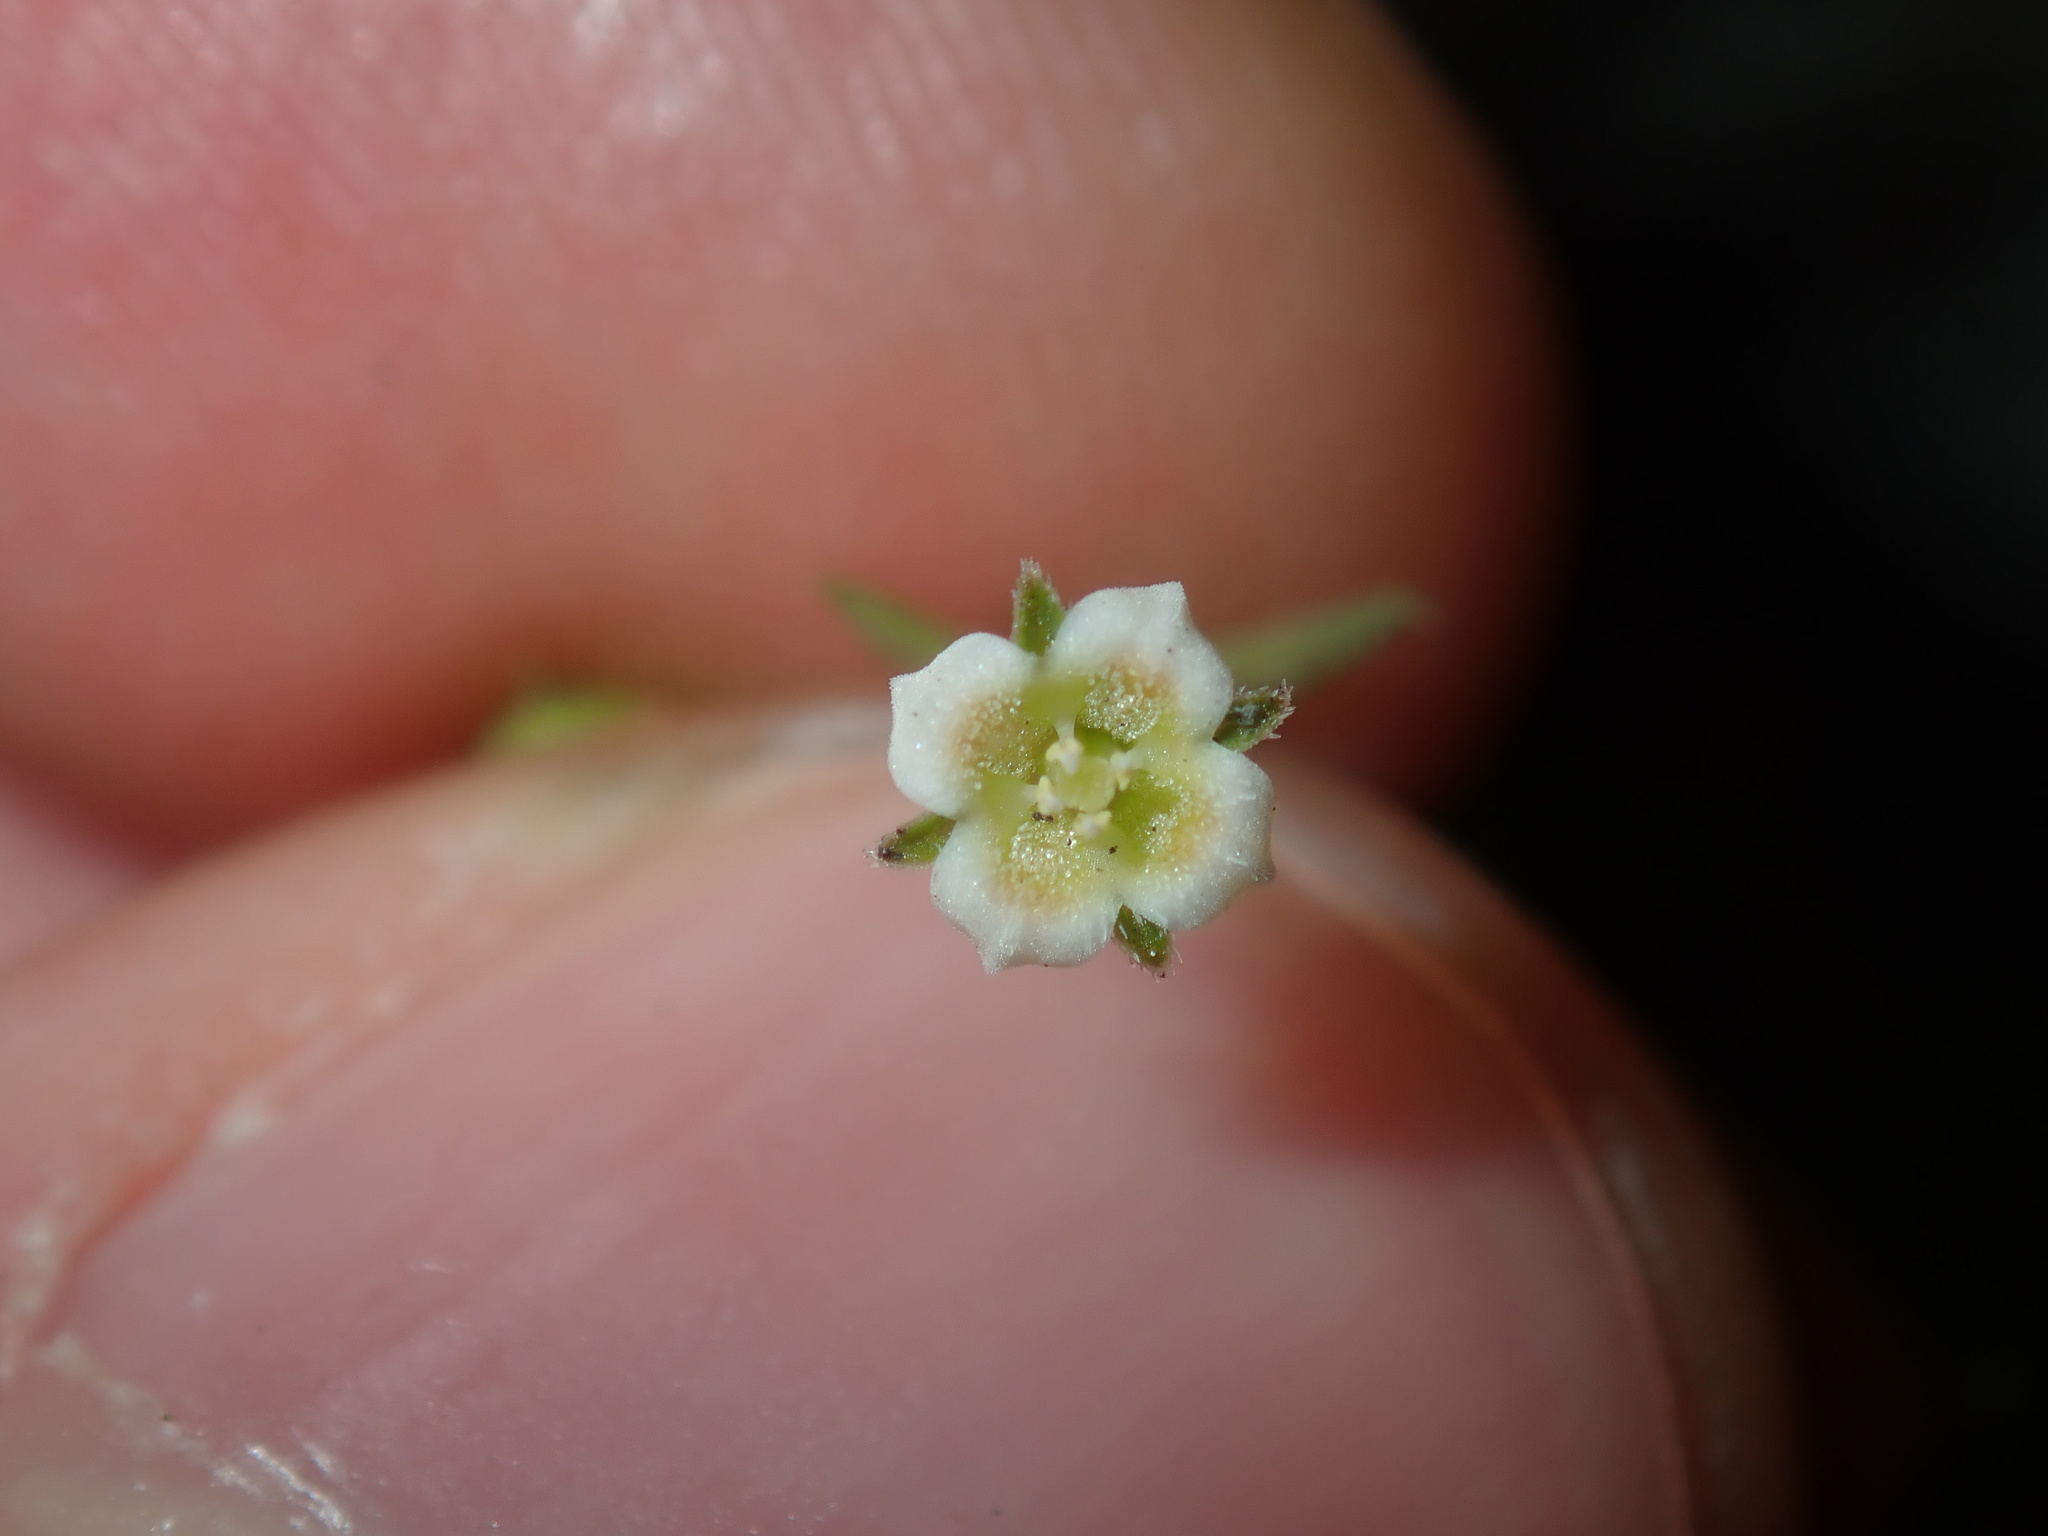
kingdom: Plantae
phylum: Tracheophyta
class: Magnoliopsida
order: Gentianales
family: Loganiaceae
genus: Mitrasacme
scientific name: Mitrasacme paludosa
